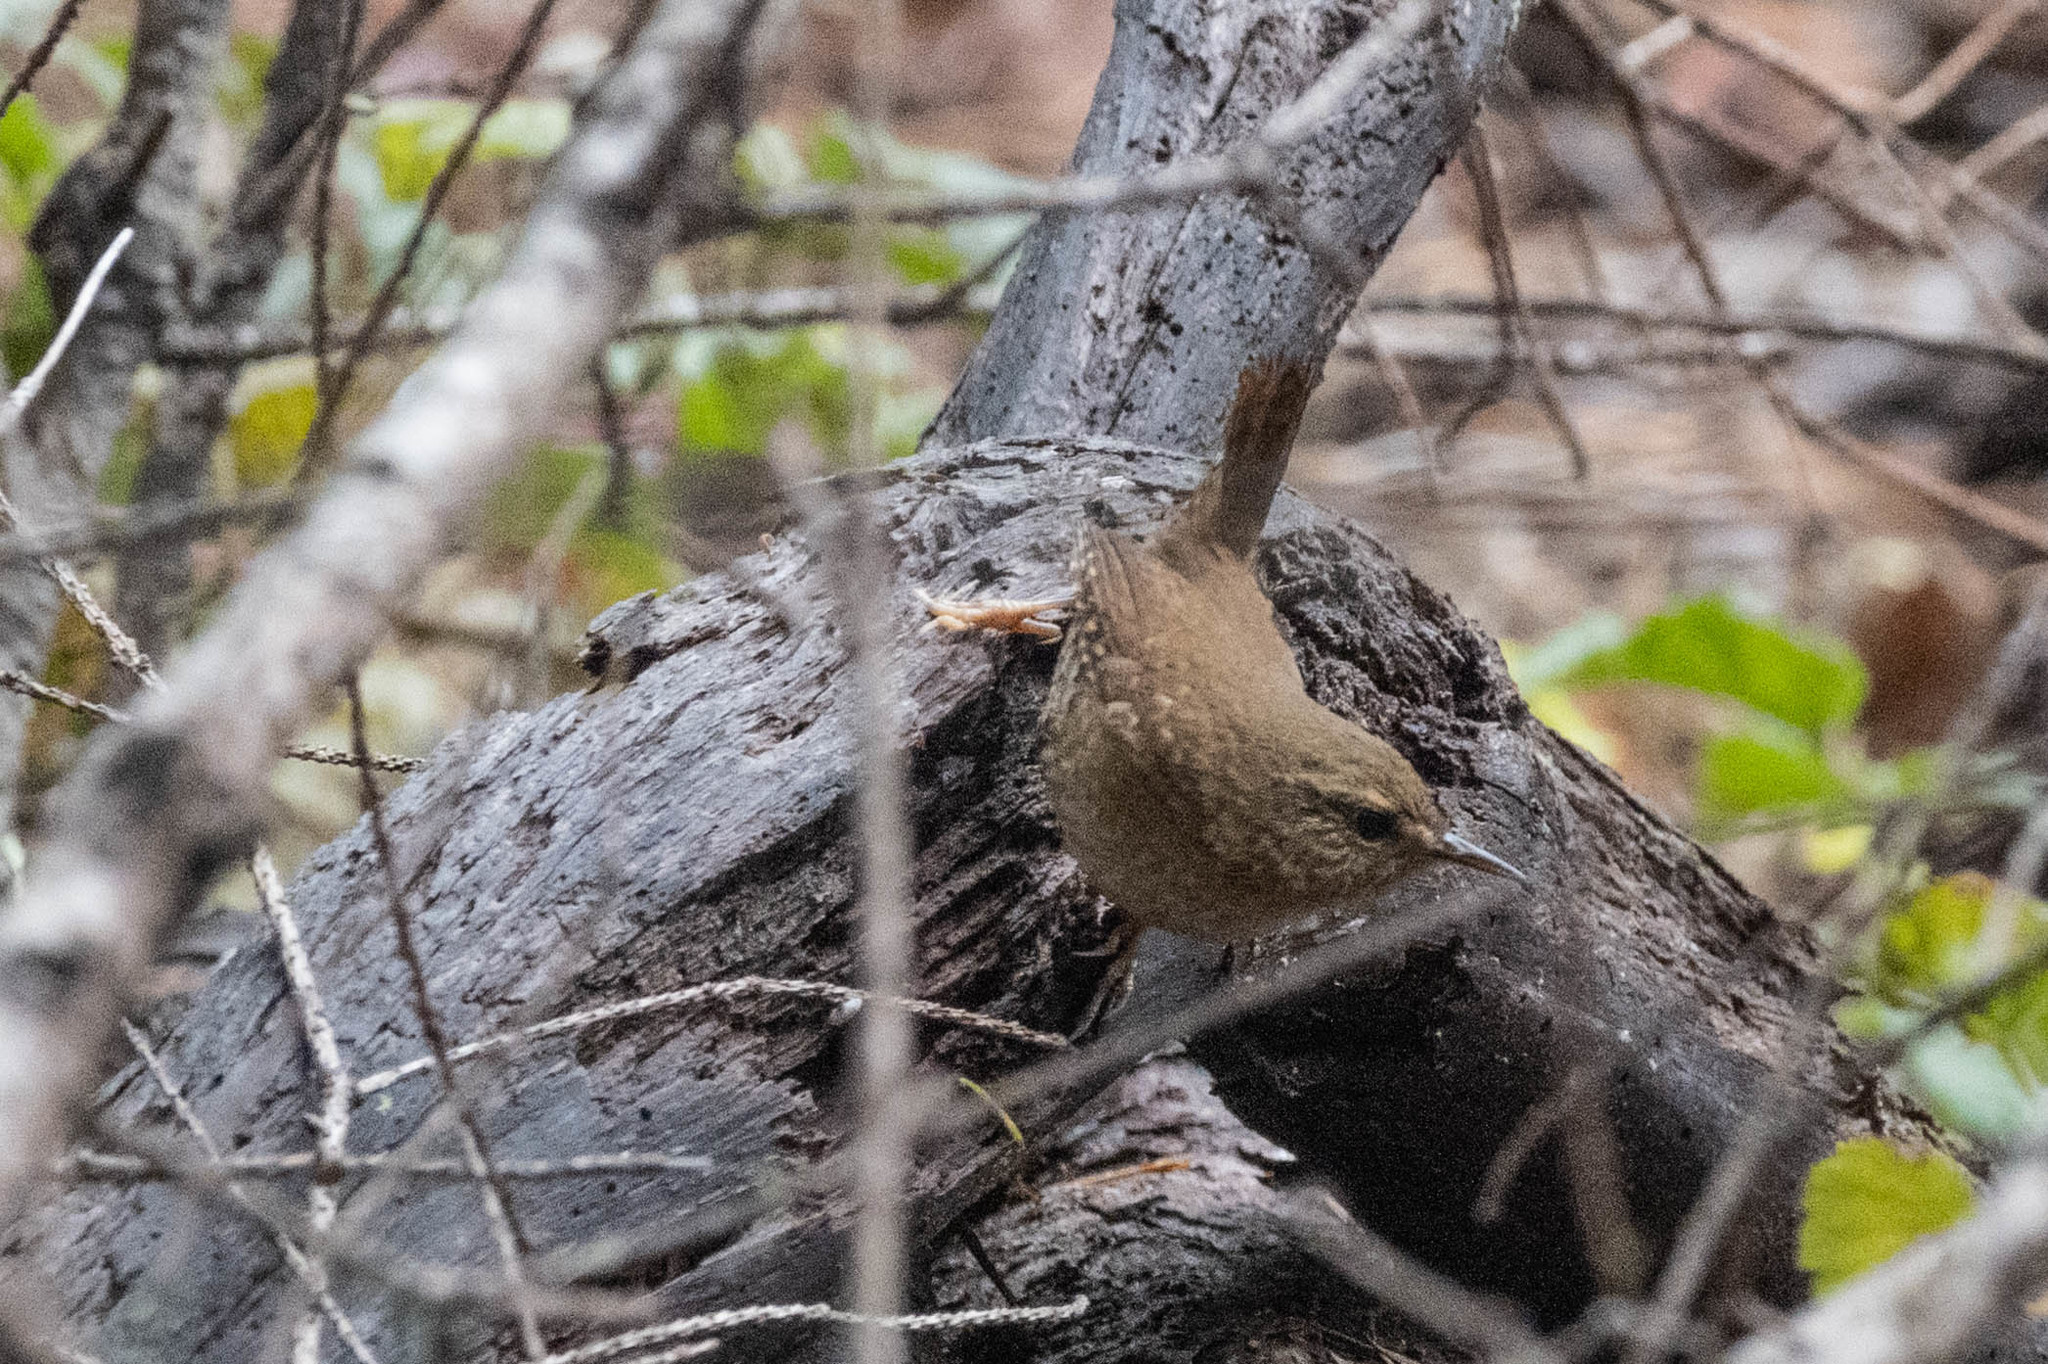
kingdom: Animalia
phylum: Chordata
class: Aves
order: Passeriformes
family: Troglodytidae
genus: Troglodytes
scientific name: Troglodytes pacificus
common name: Pacific wren
